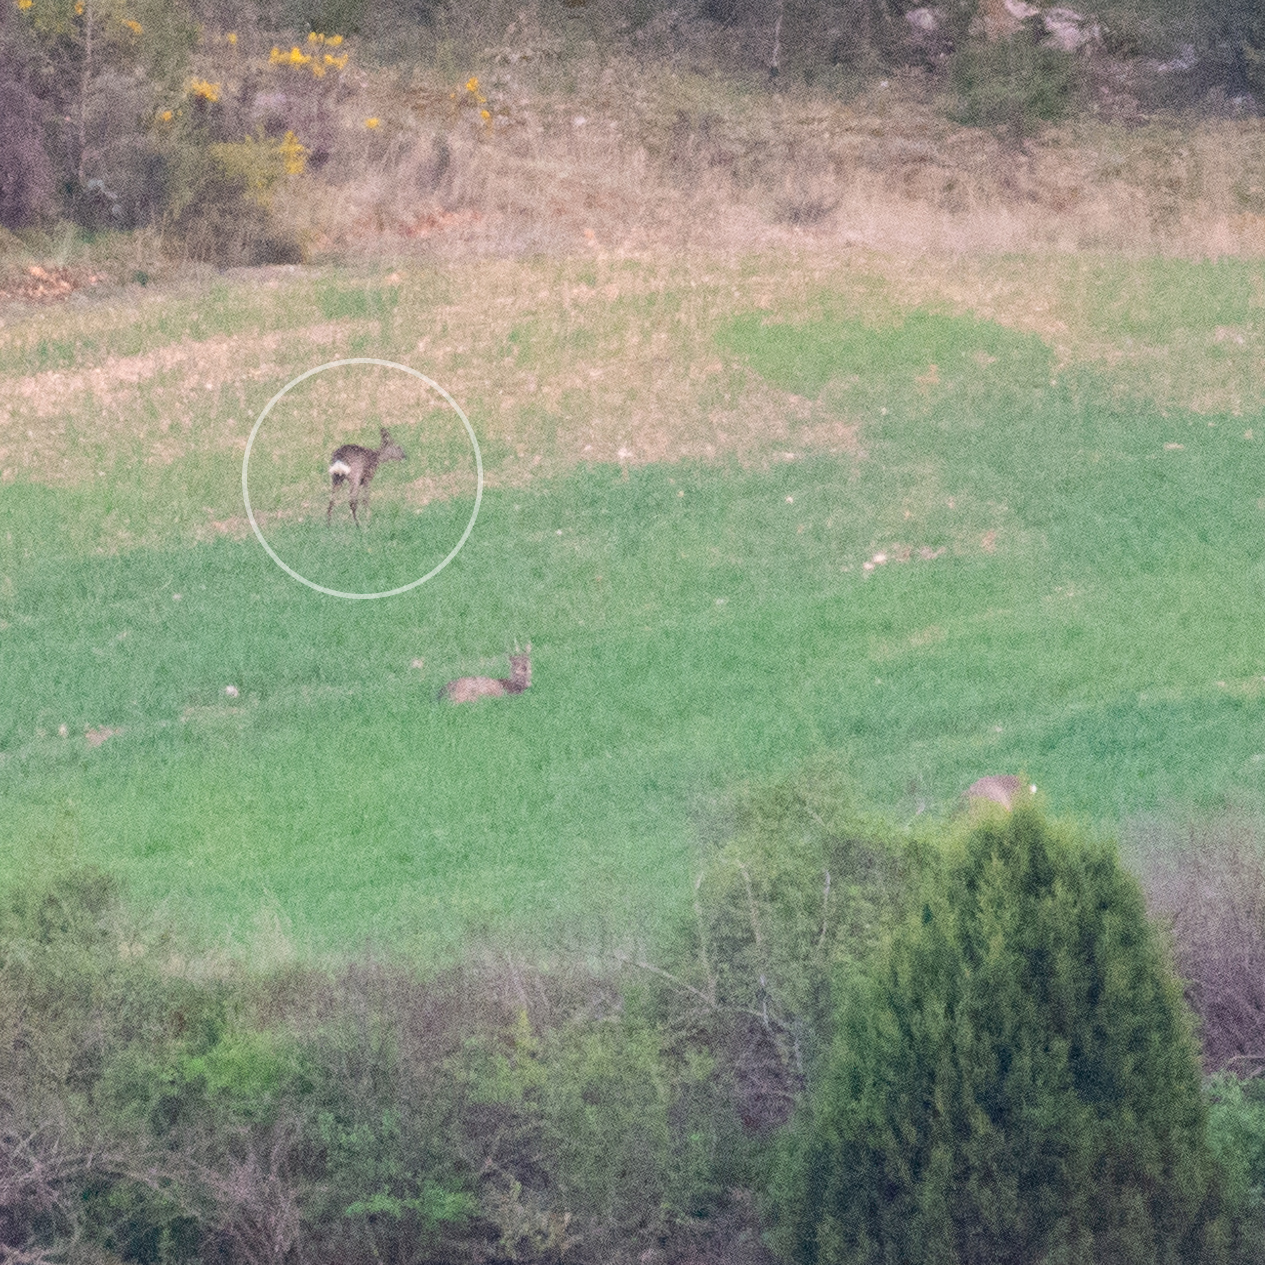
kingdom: Animalia
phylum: Chordata
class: Mammalia
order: Artiodactyla
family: Cervidae
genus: Capreolus
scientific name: Capreolus capreolus
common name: Western roe deer
